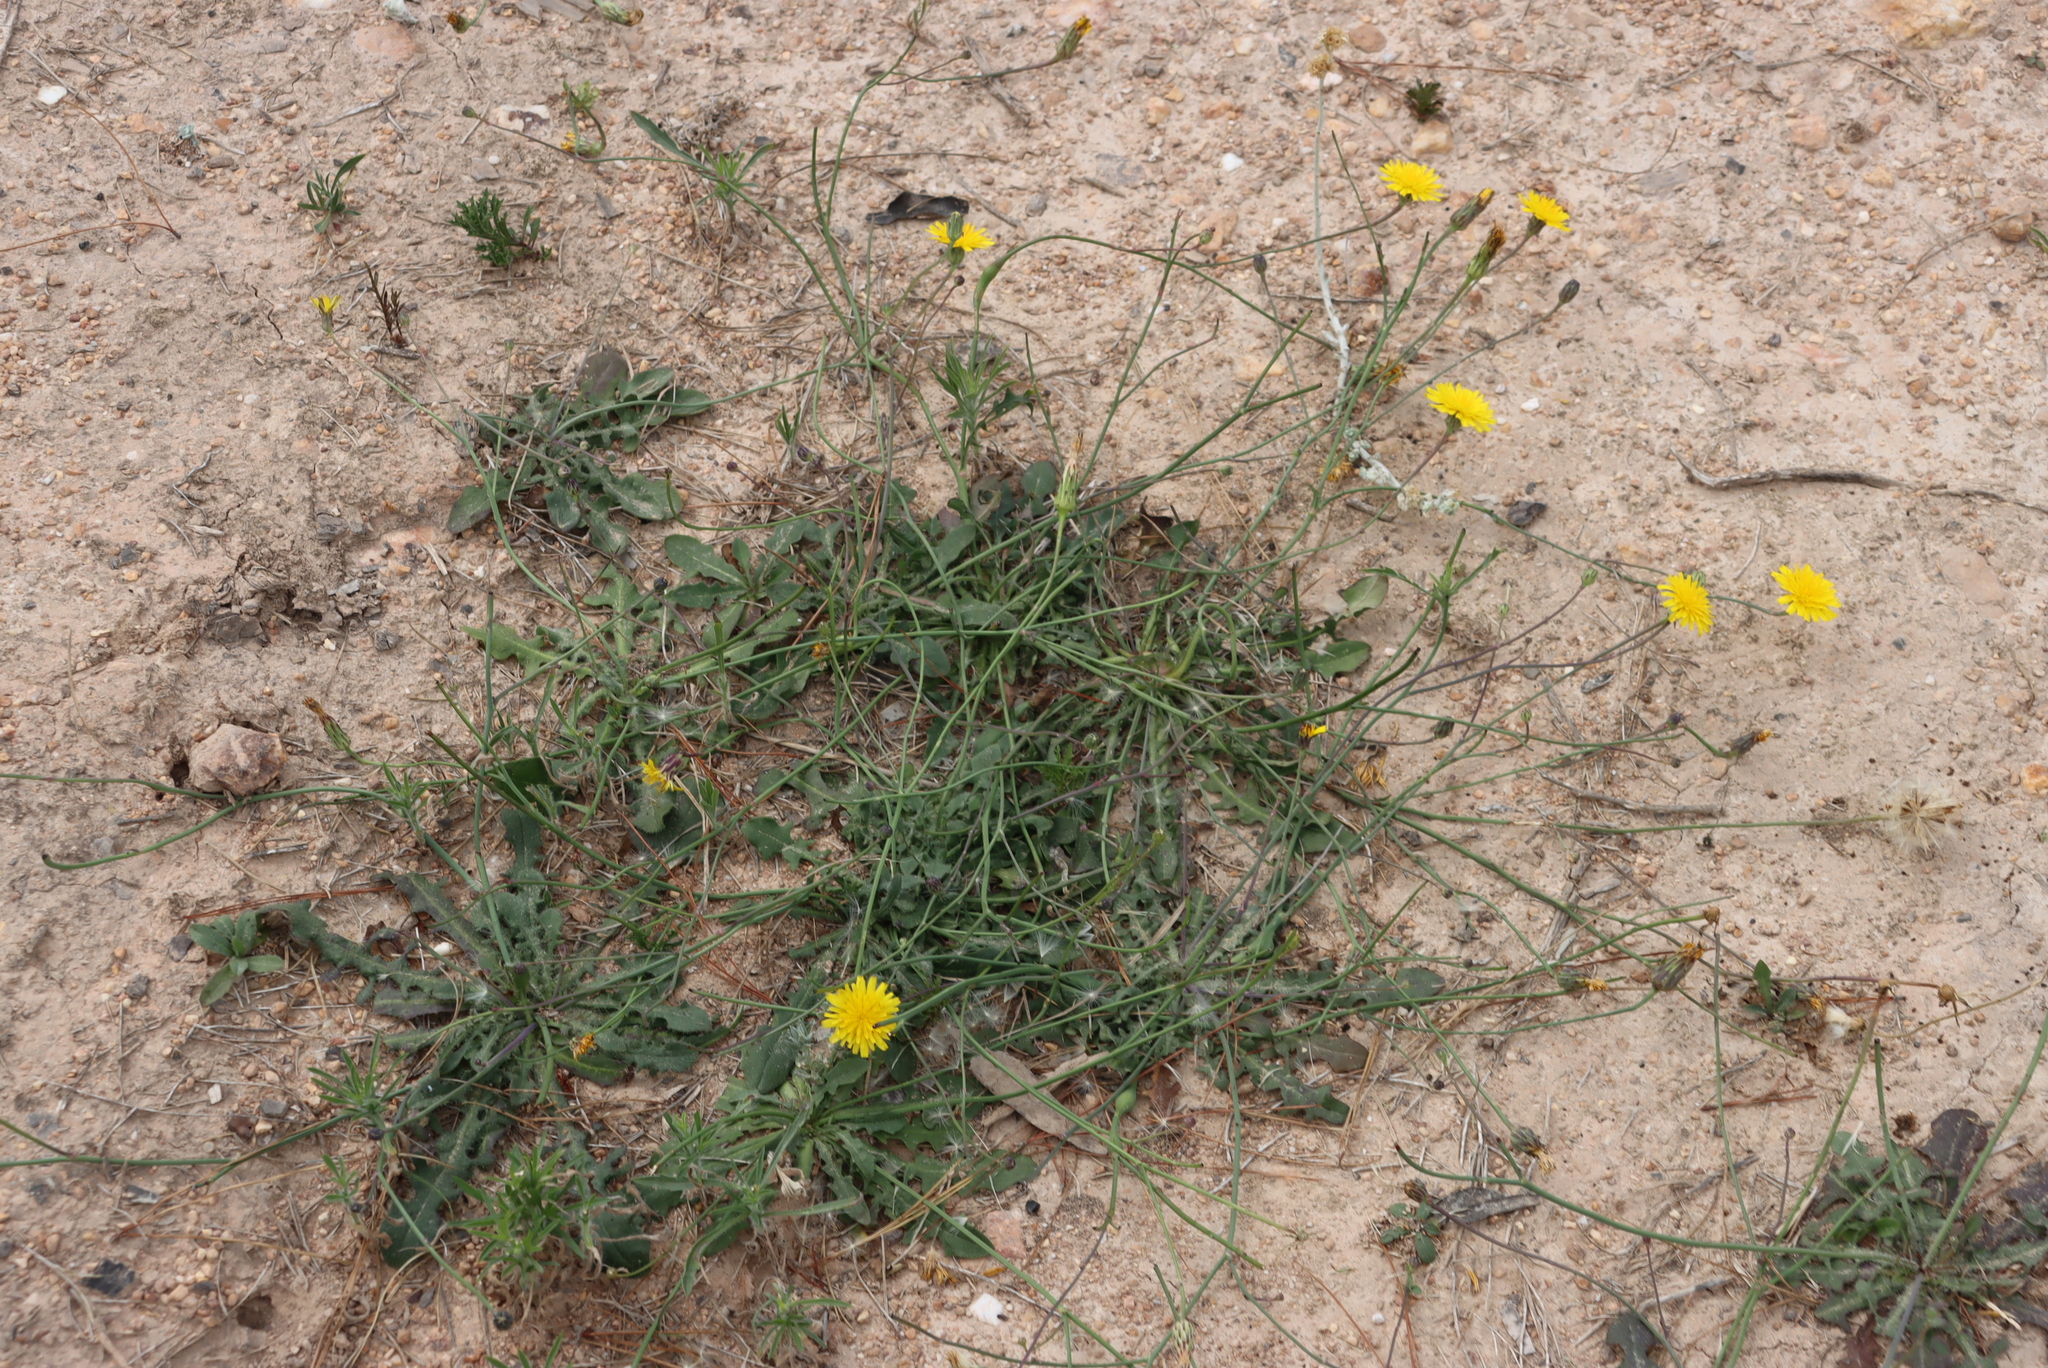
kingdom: Plantae
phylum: Tracheophyta
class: Magnoliopsida
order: Asterales
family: Asteraceae
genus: Hypochaeris
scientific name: Hypochaeris radicata
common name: Flatweed
